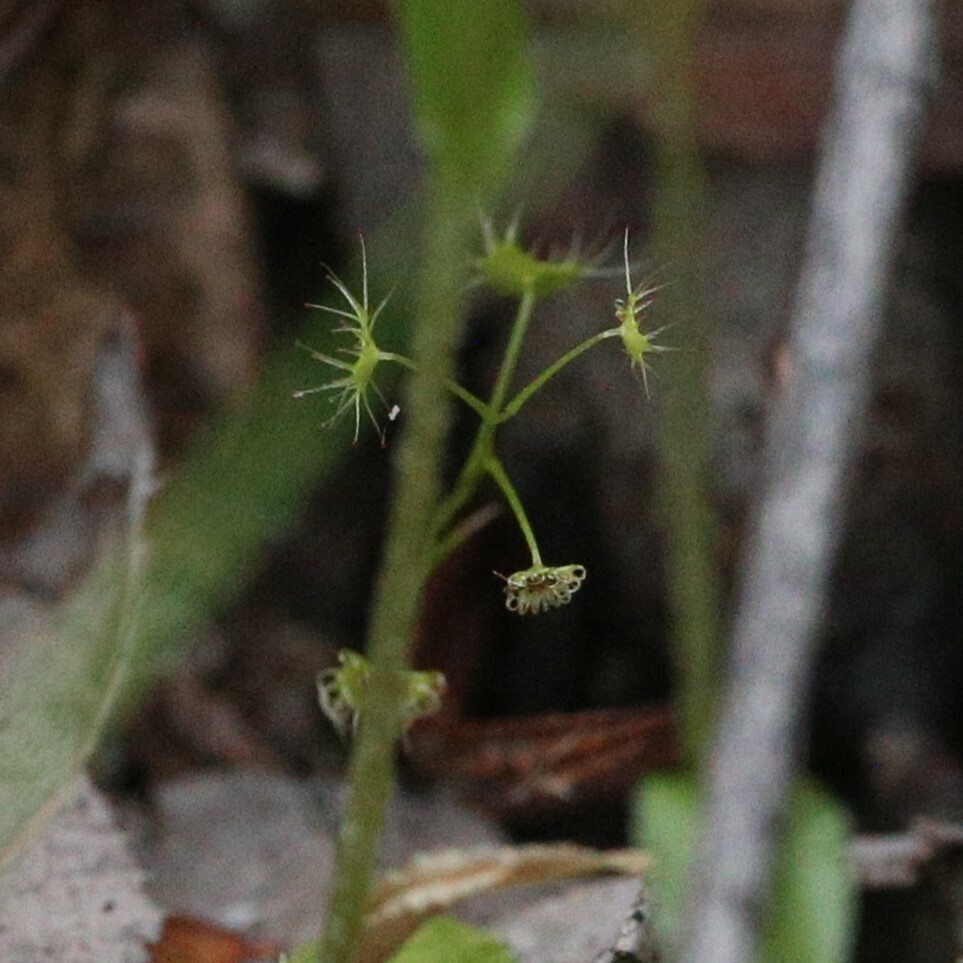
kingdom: Plantae
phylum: Tracheophyta
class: Magnoliopsida
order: Caryophyllales
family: Droseraceae
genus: Drosera
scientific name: Drosera modesta
